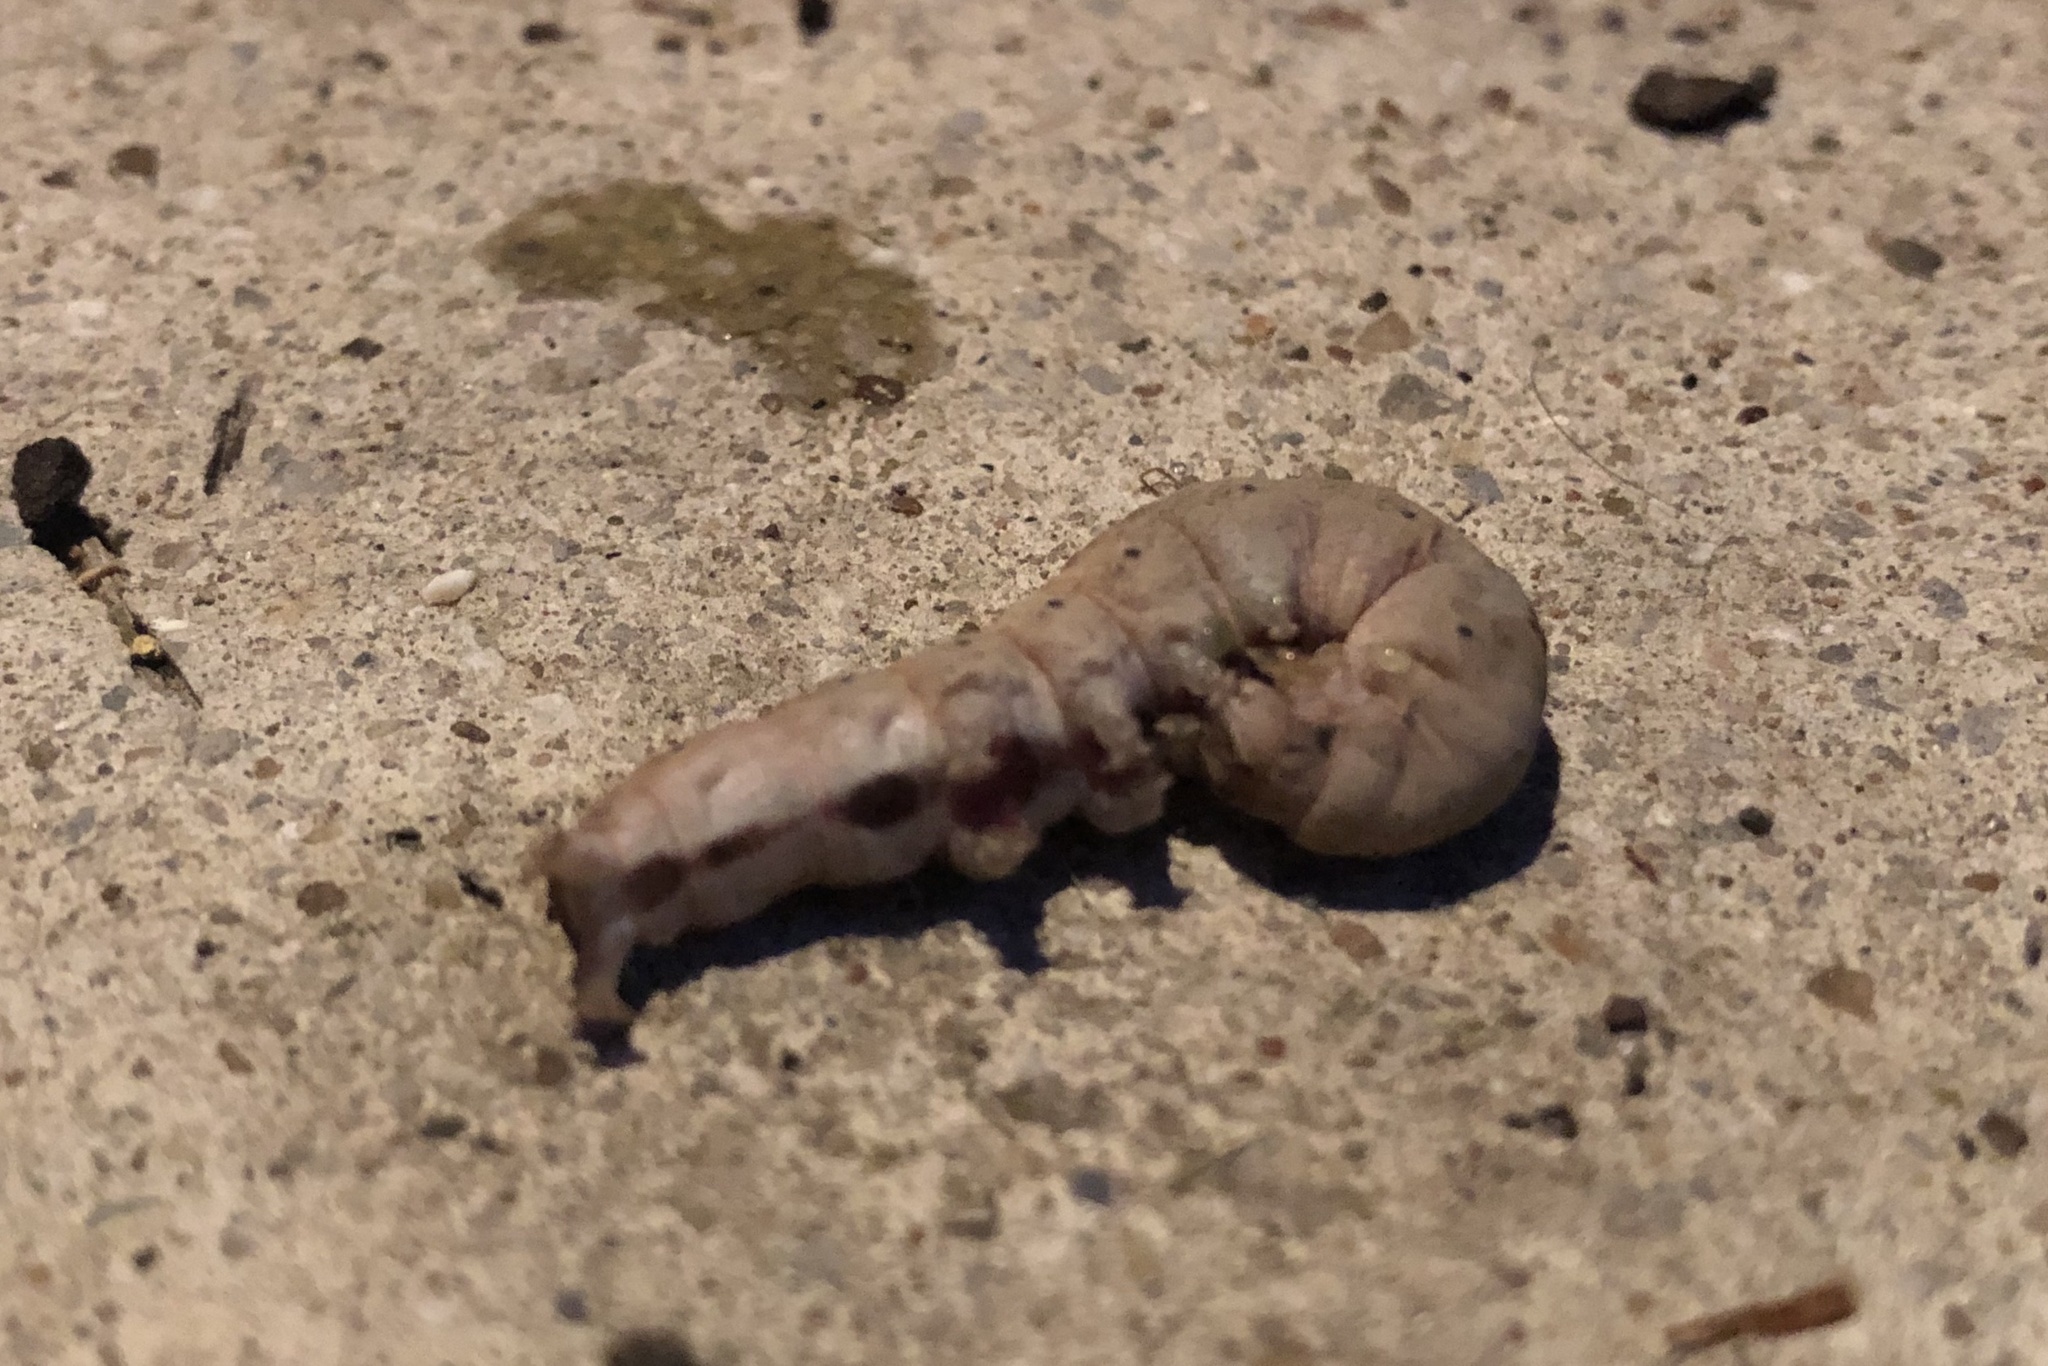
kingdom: Animalia
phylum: Arthropoda
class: Insecta
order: Lepidoptera
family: Erebidae
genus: Zale
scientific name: Zale lunata
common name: Lunate zale moth
